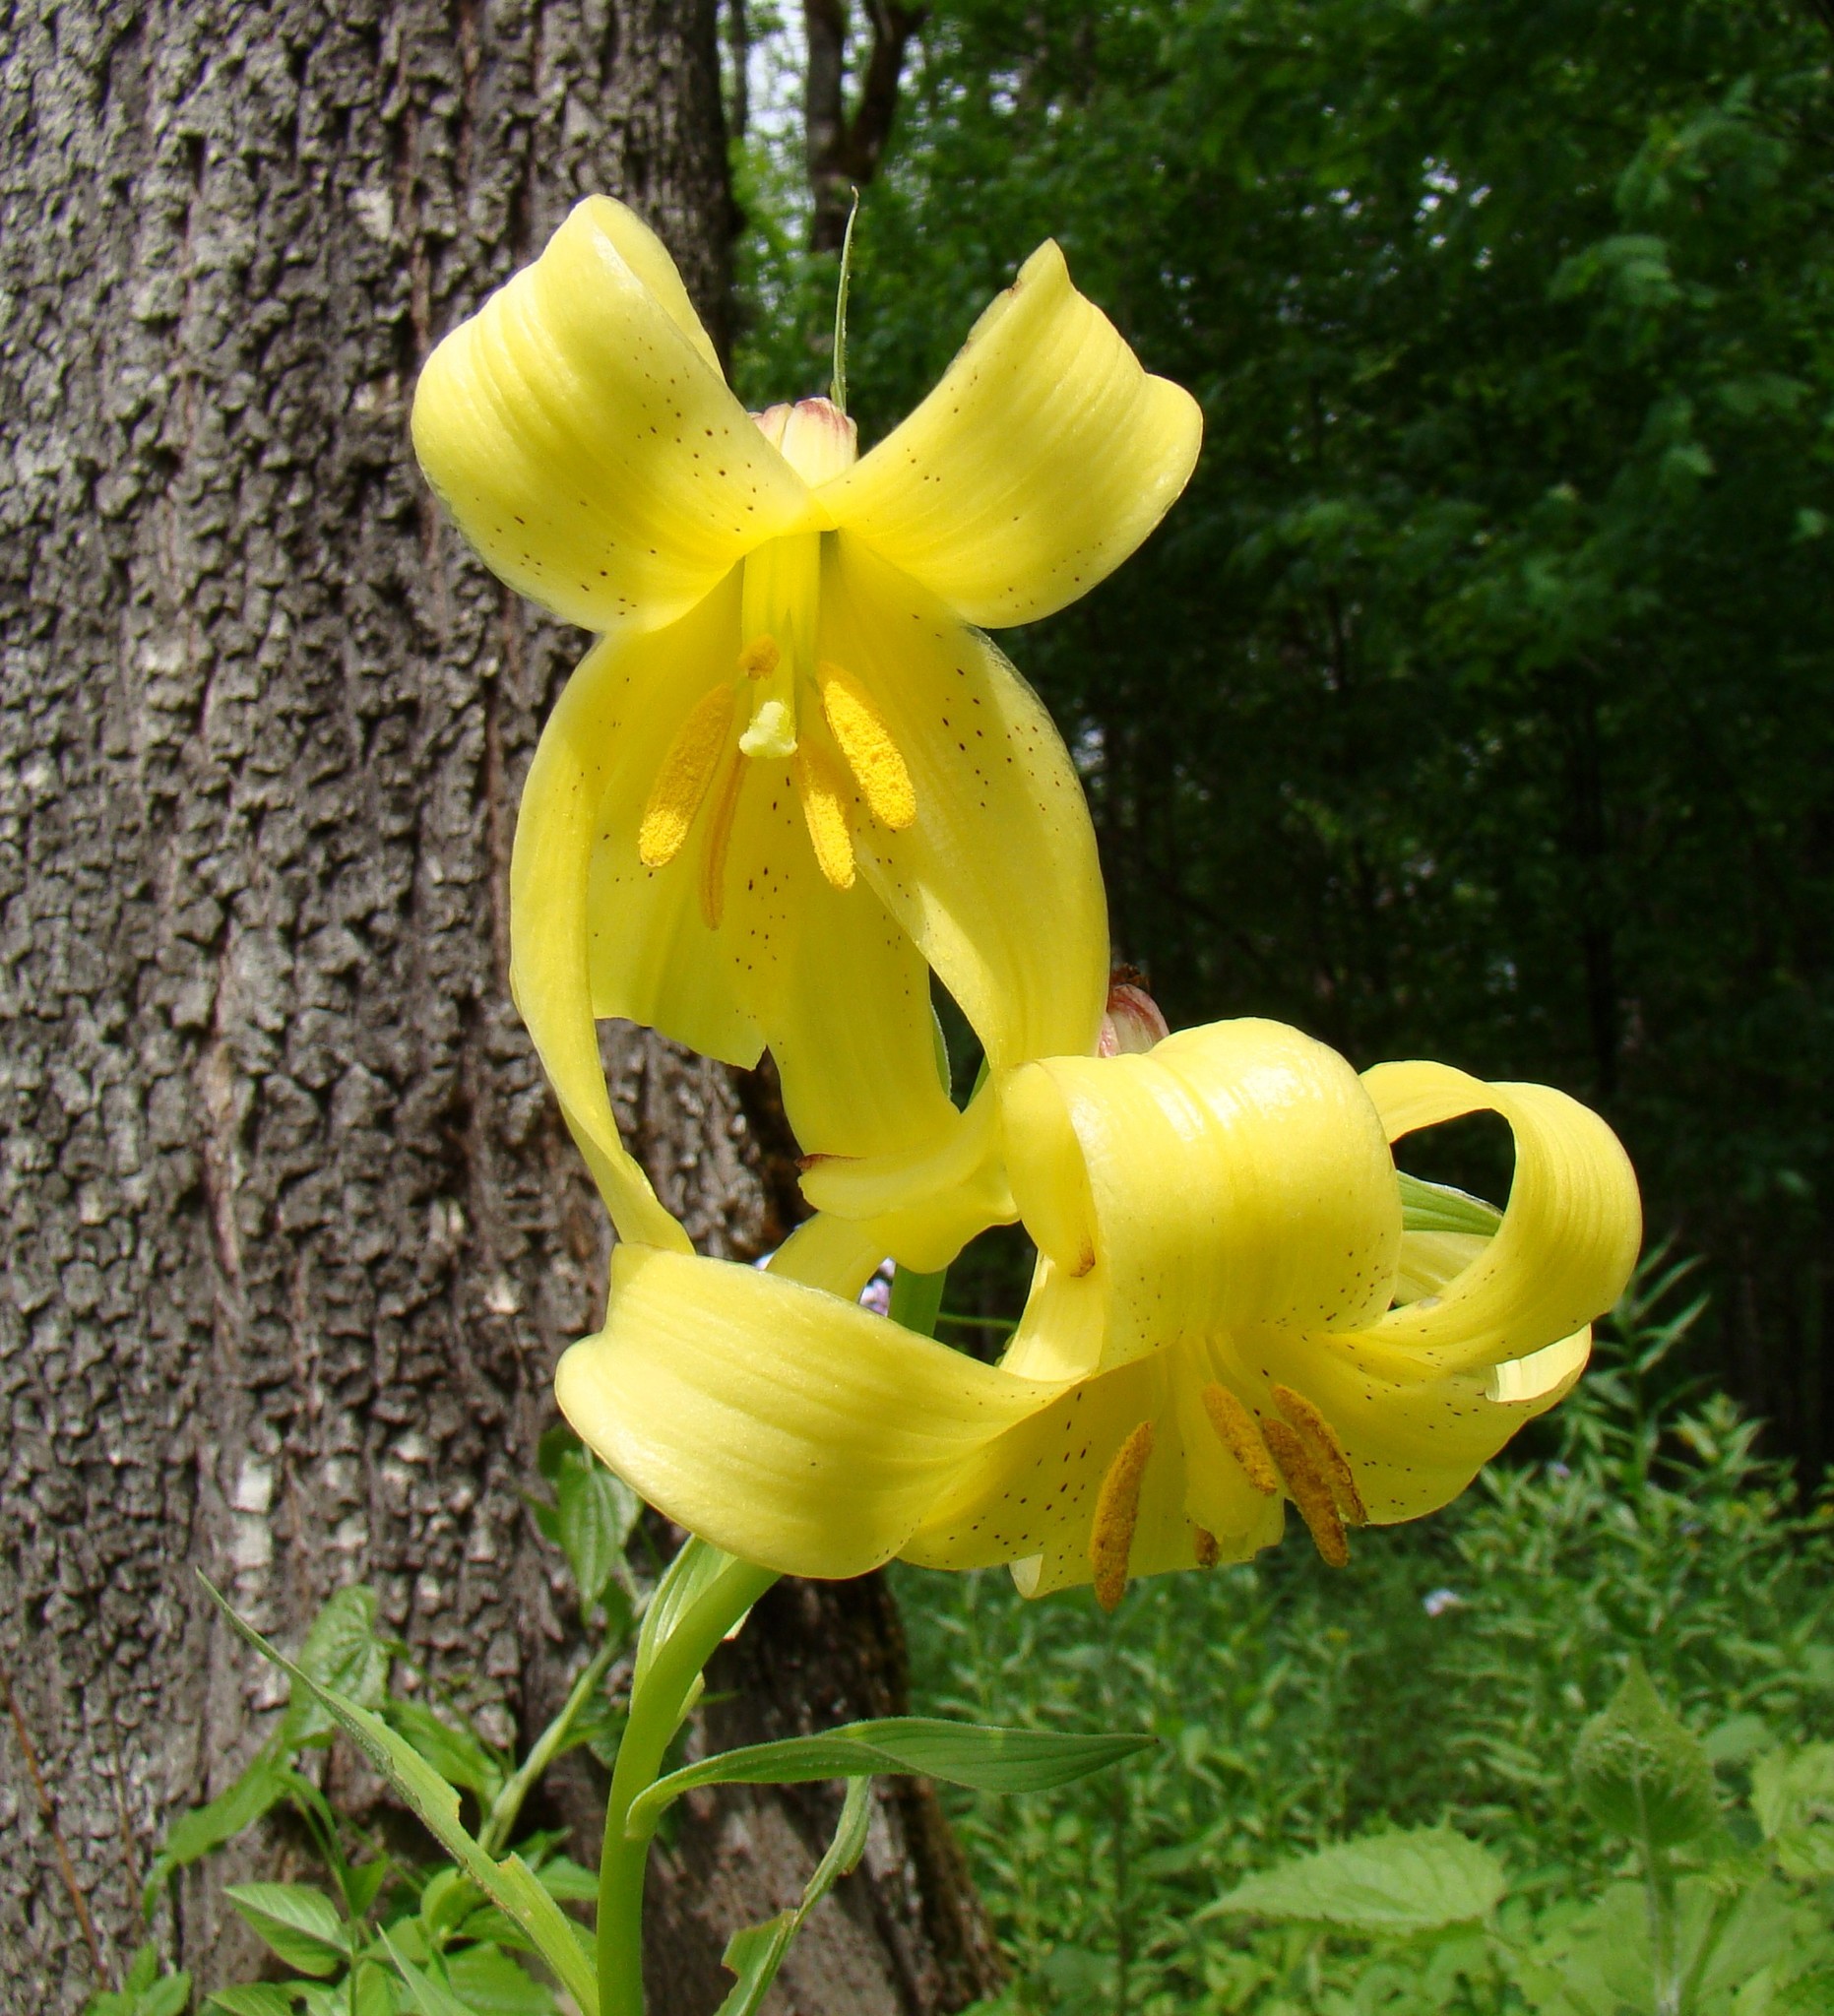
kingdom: Plantae
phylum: Tracheophyta
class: Liliopsida
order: Liliales
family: Liliaceae
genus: Lilium
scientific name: Lilium monadelphum
